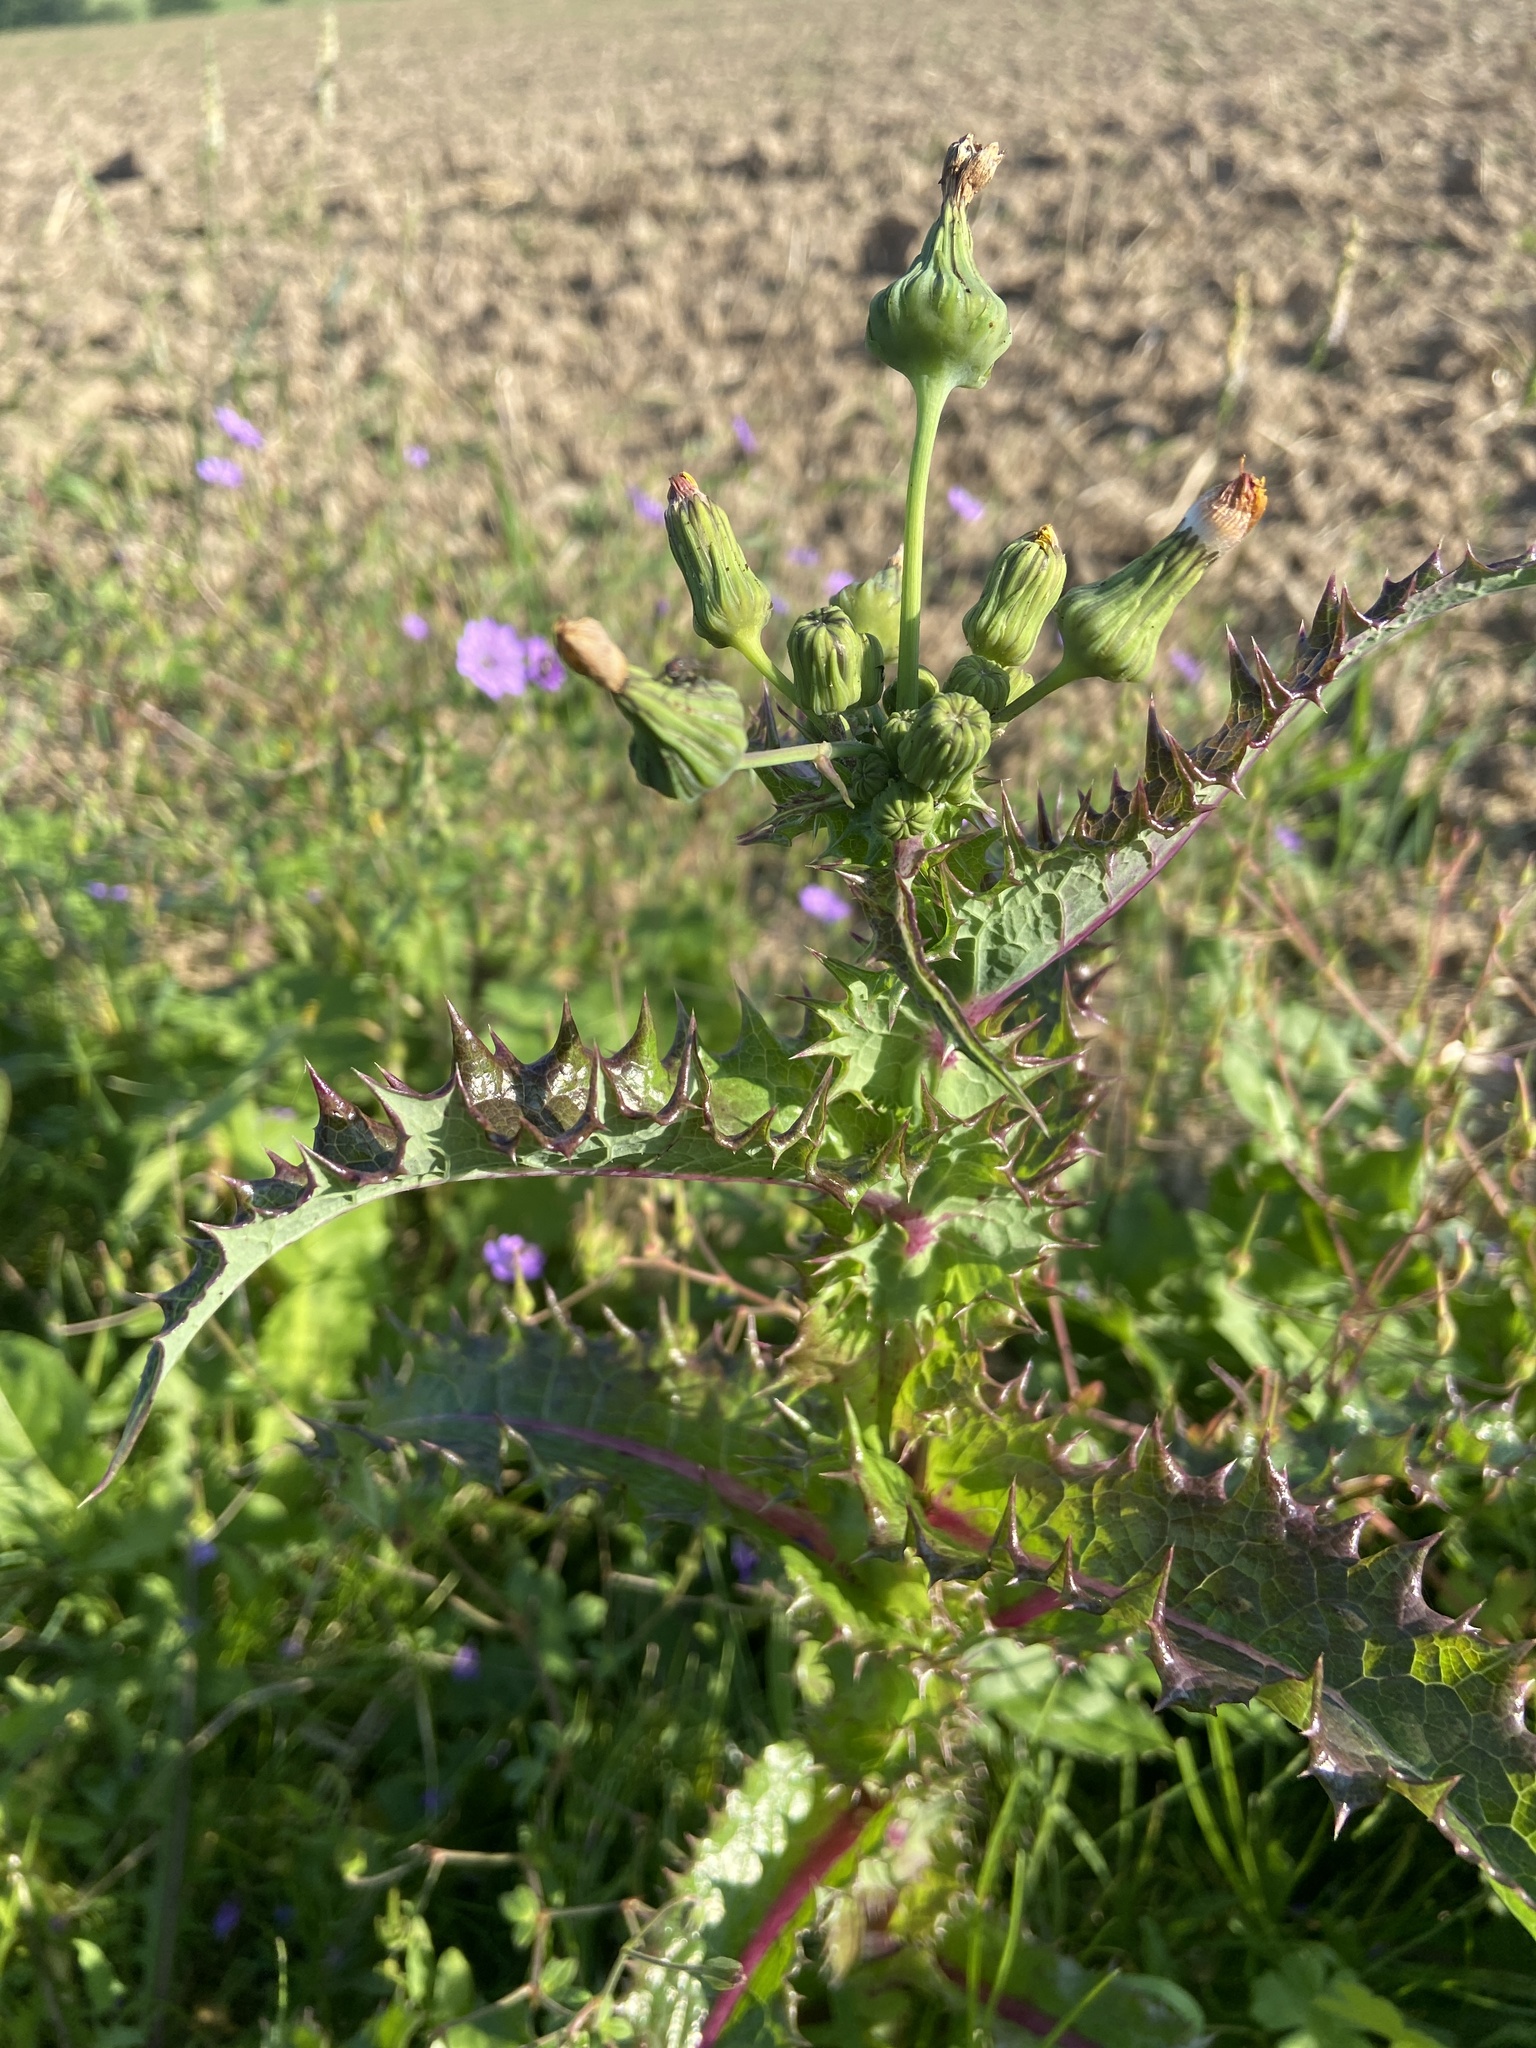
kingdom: Plantae
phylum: Tracheophyta
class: Magnoliopsida
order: Asterales
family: Asteraceae
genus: Sonchus
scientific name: Sonchus asper
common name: Prickly sow-thistle
